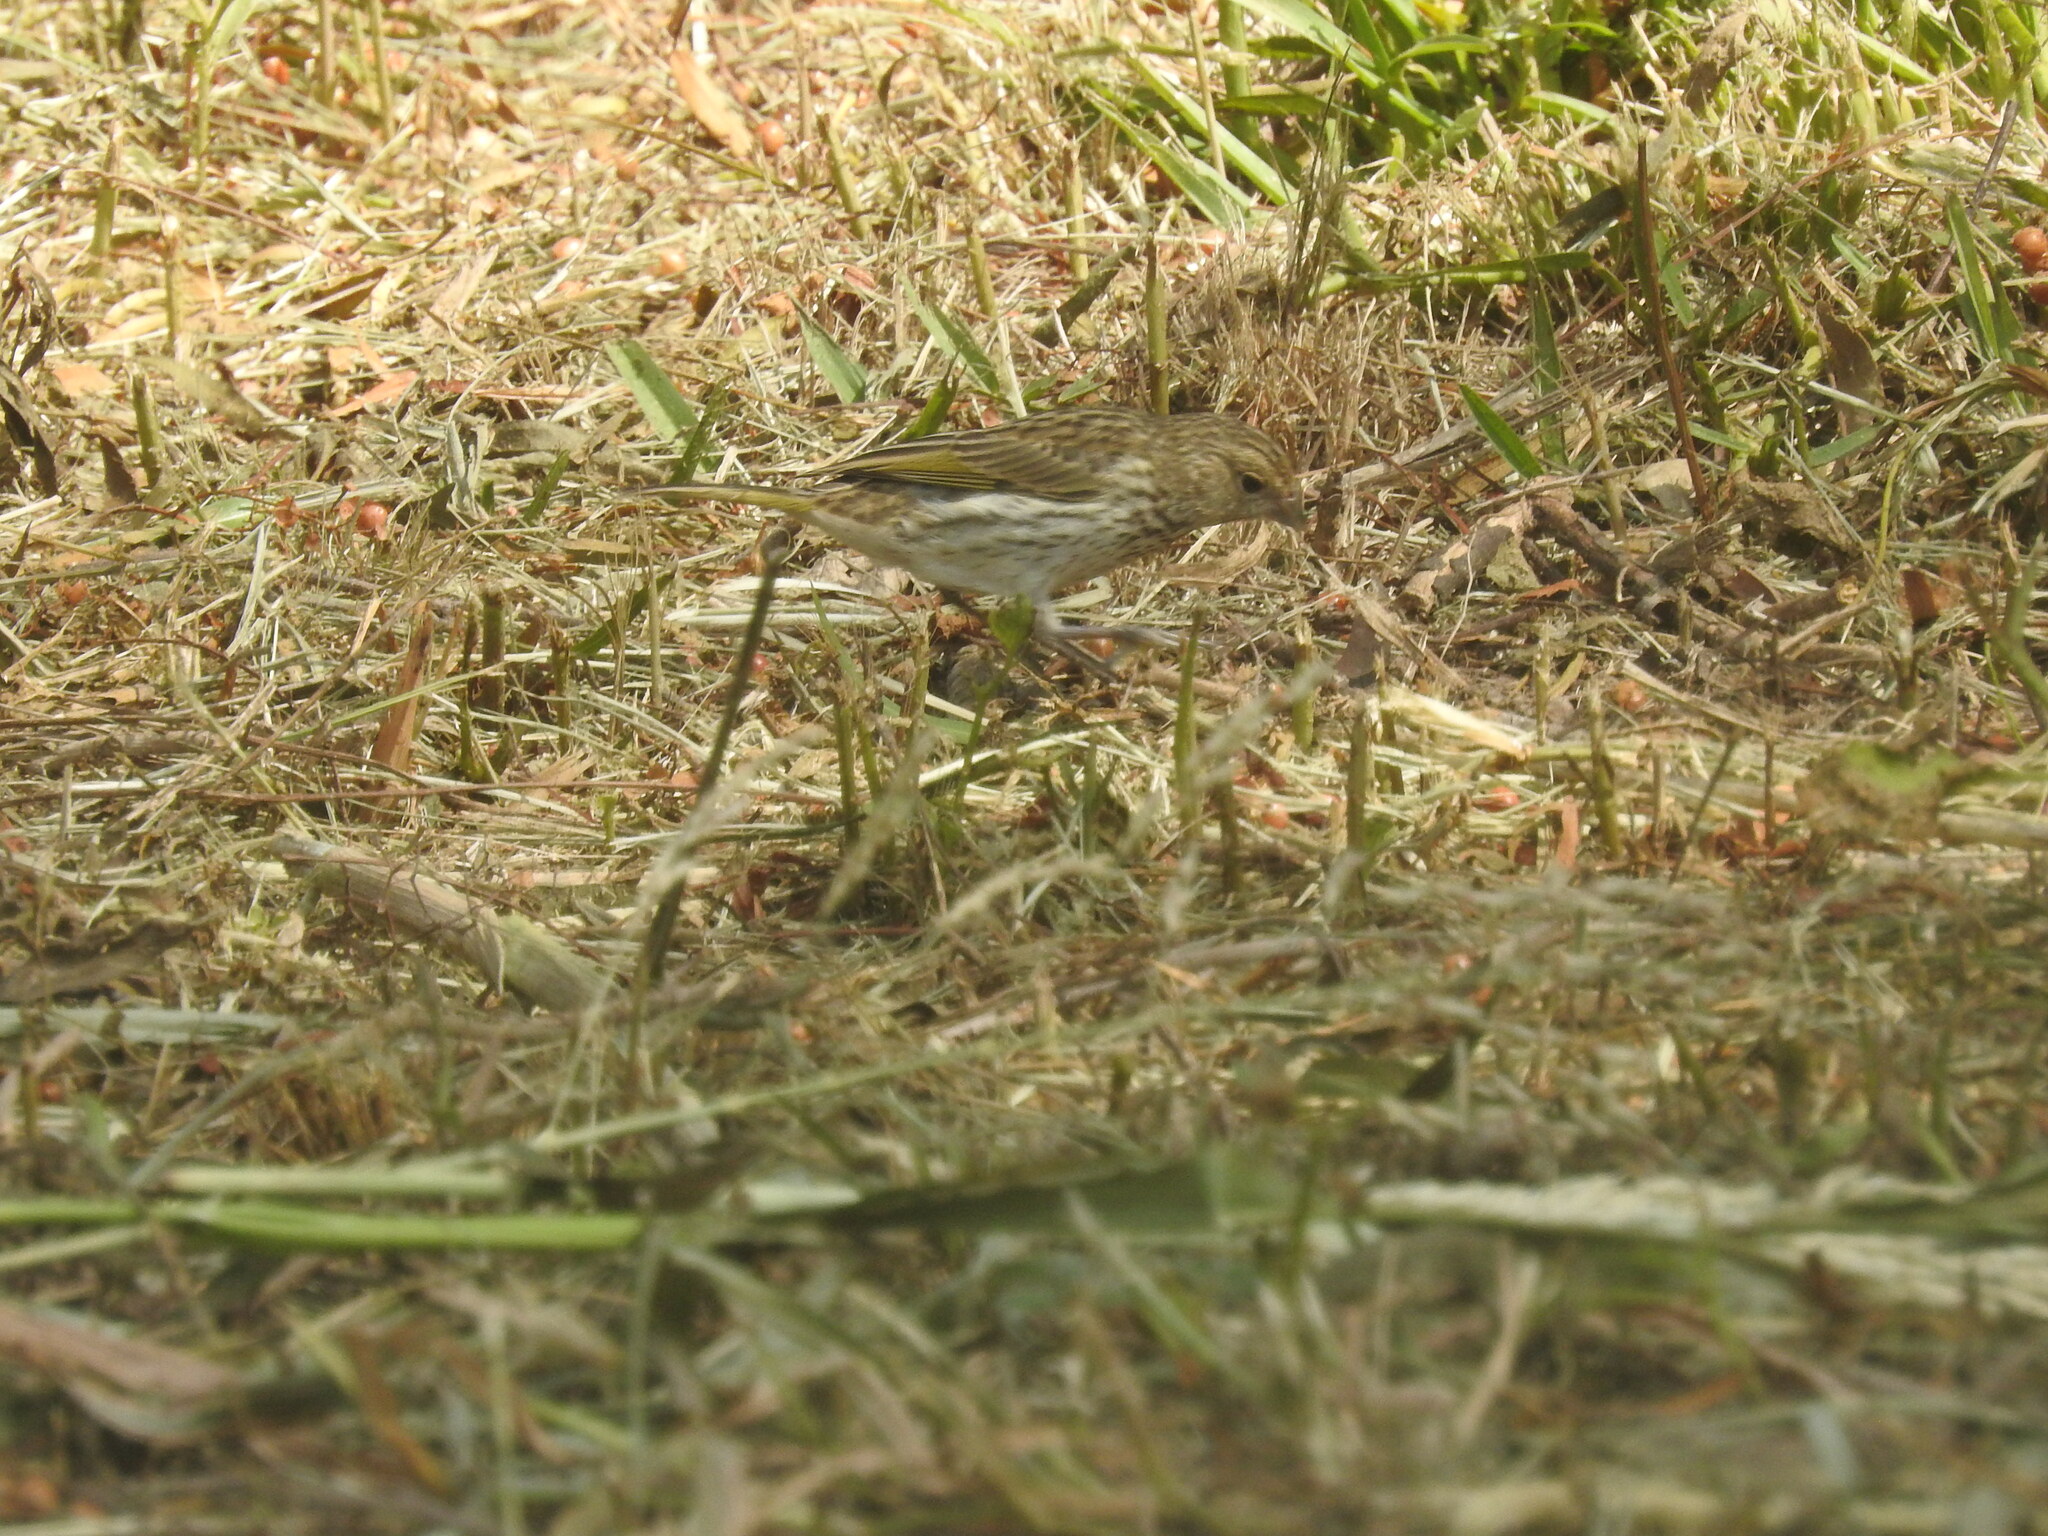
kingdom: Animalia
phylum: Chordata
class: Aves
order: Passeriformes
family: Thraupidae
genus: Sicalis
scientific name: Sicalis flaveola
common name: Saffron finch
